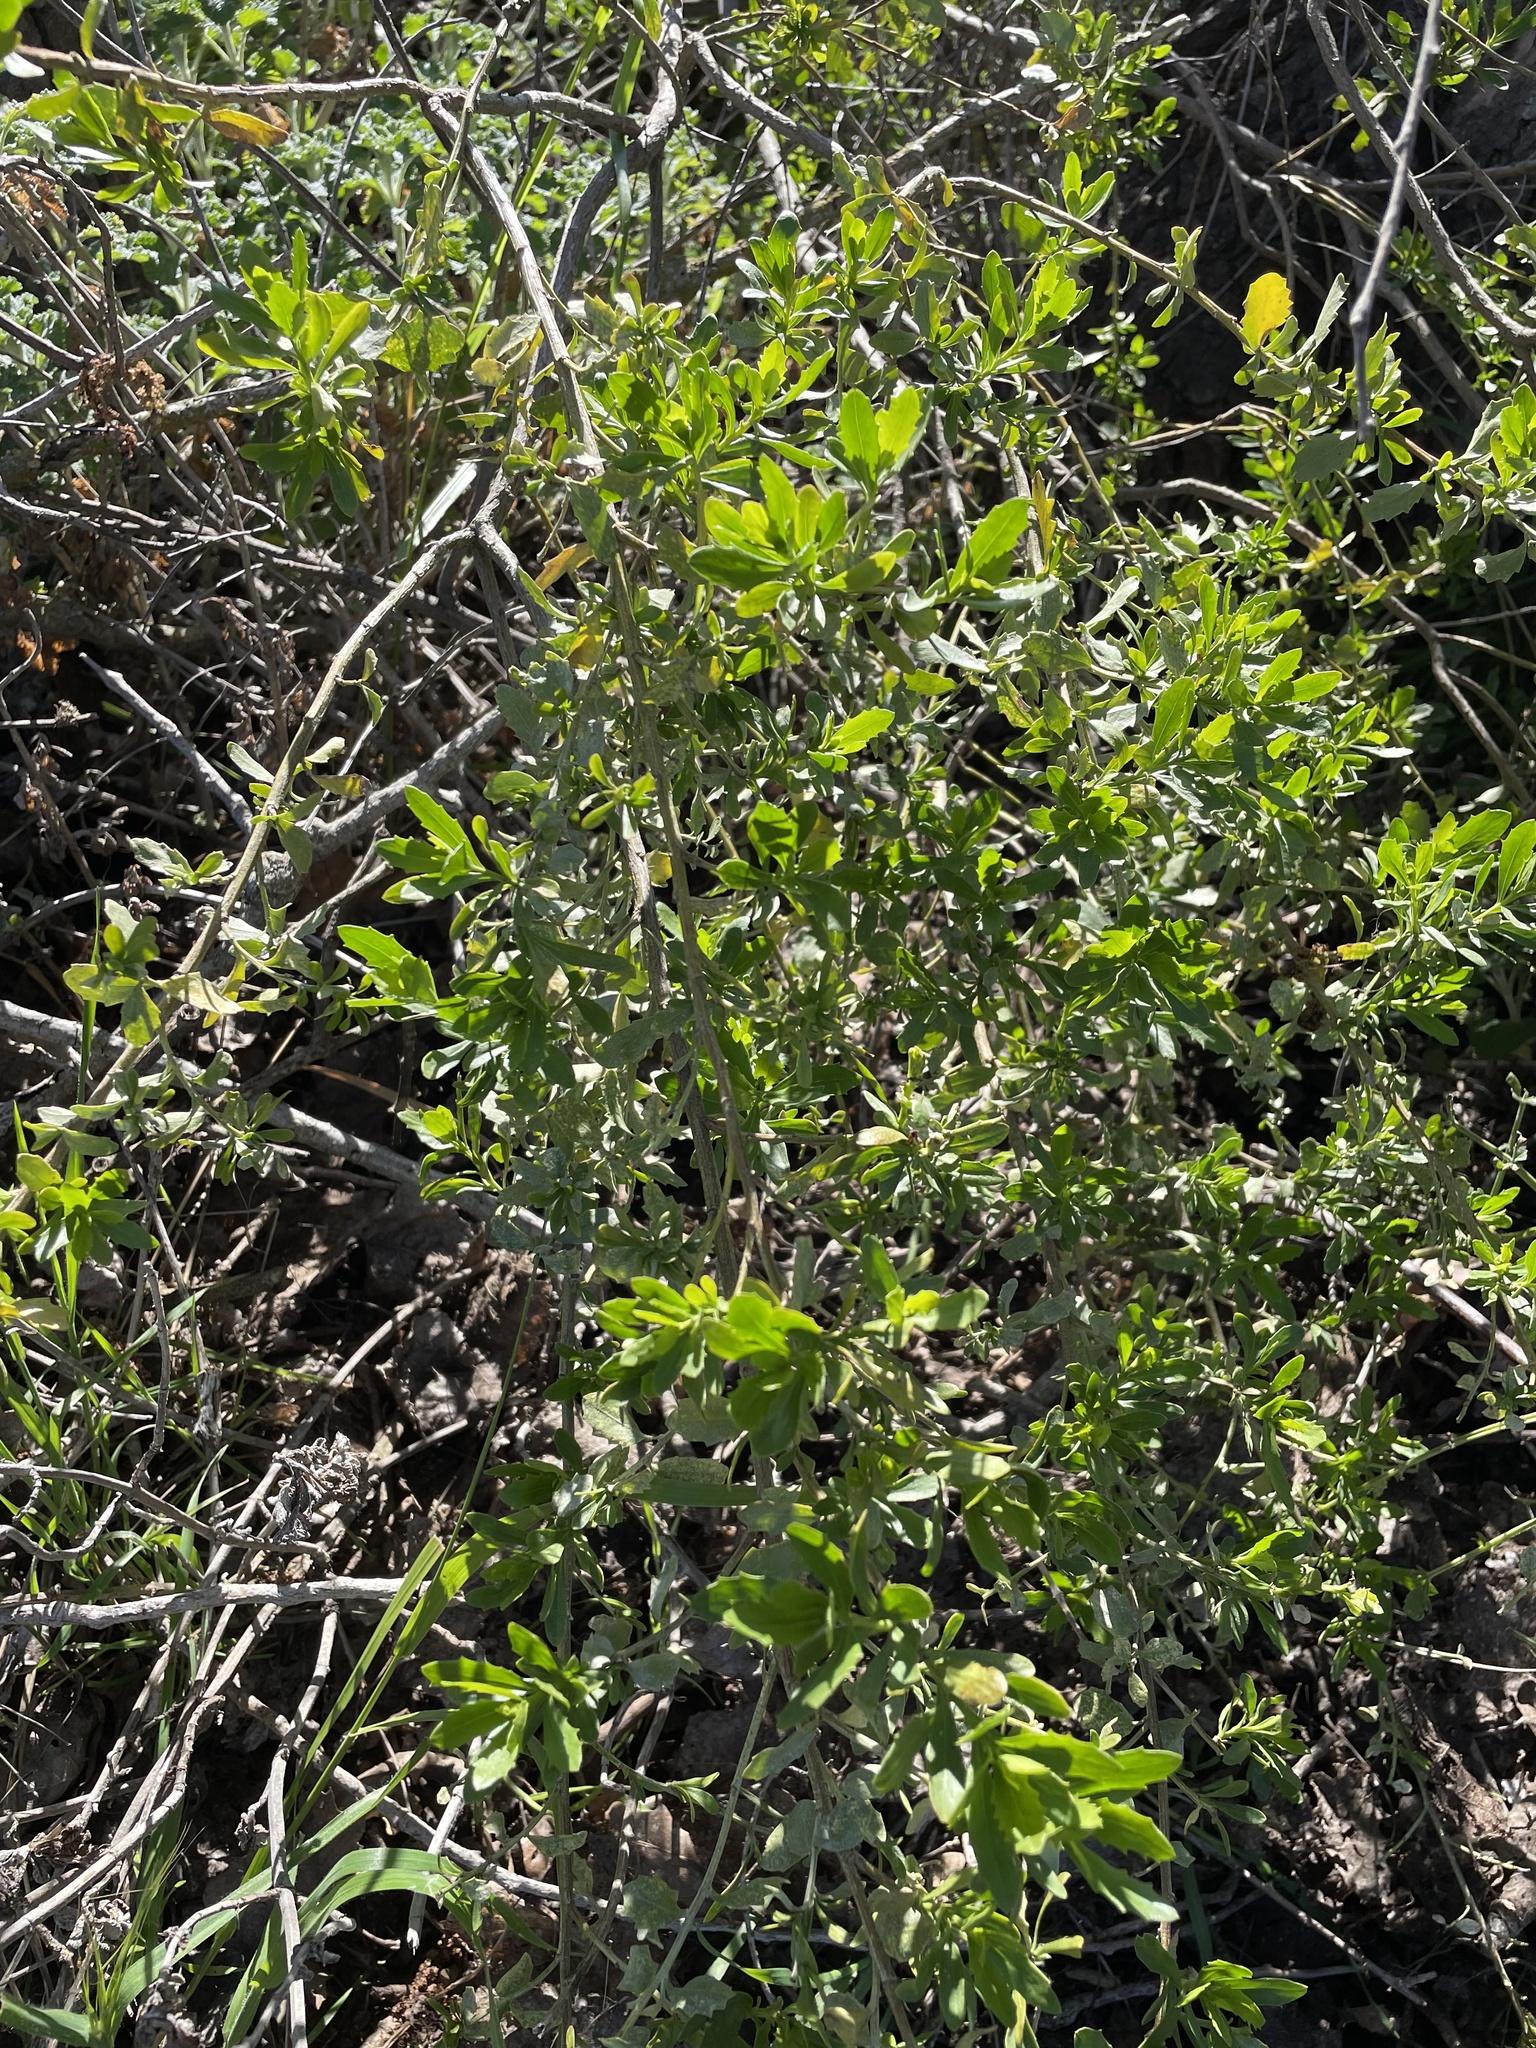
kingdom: Plantae
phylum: Tracheophyta
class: Magnoliopsida
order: Asterales
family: Asteraceae
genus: Baccharis
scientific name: Baccharis pilularis
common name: Coyotebrush
